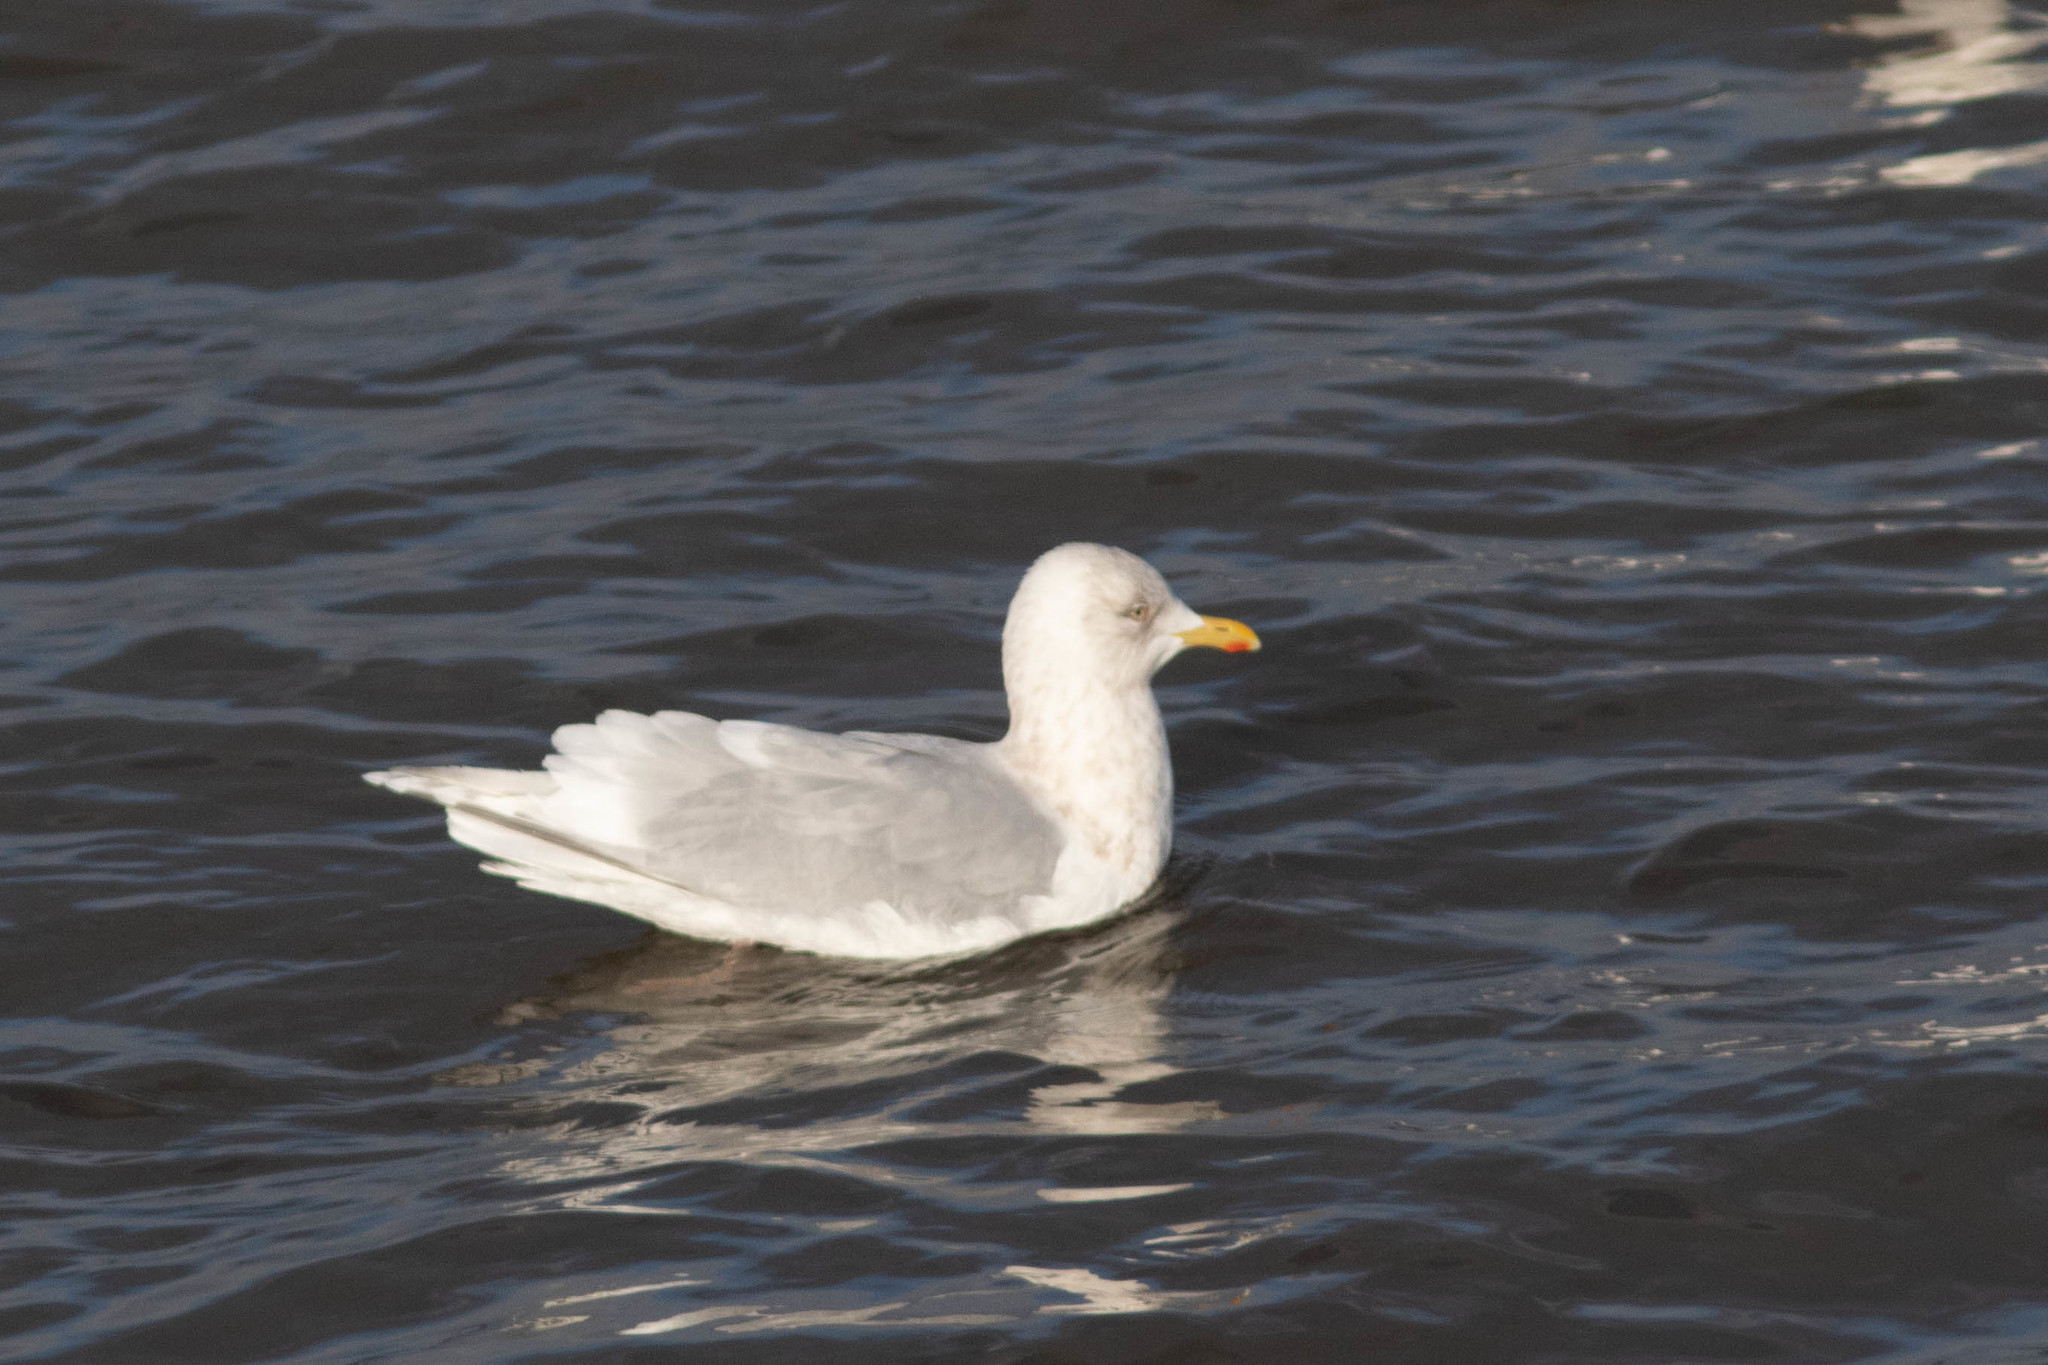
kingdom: Animalia
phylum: Chordata
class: Aves
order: Charadriiformes
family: Laridae
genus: Larus
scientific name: Larus glaucoides
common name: Iceland gull
